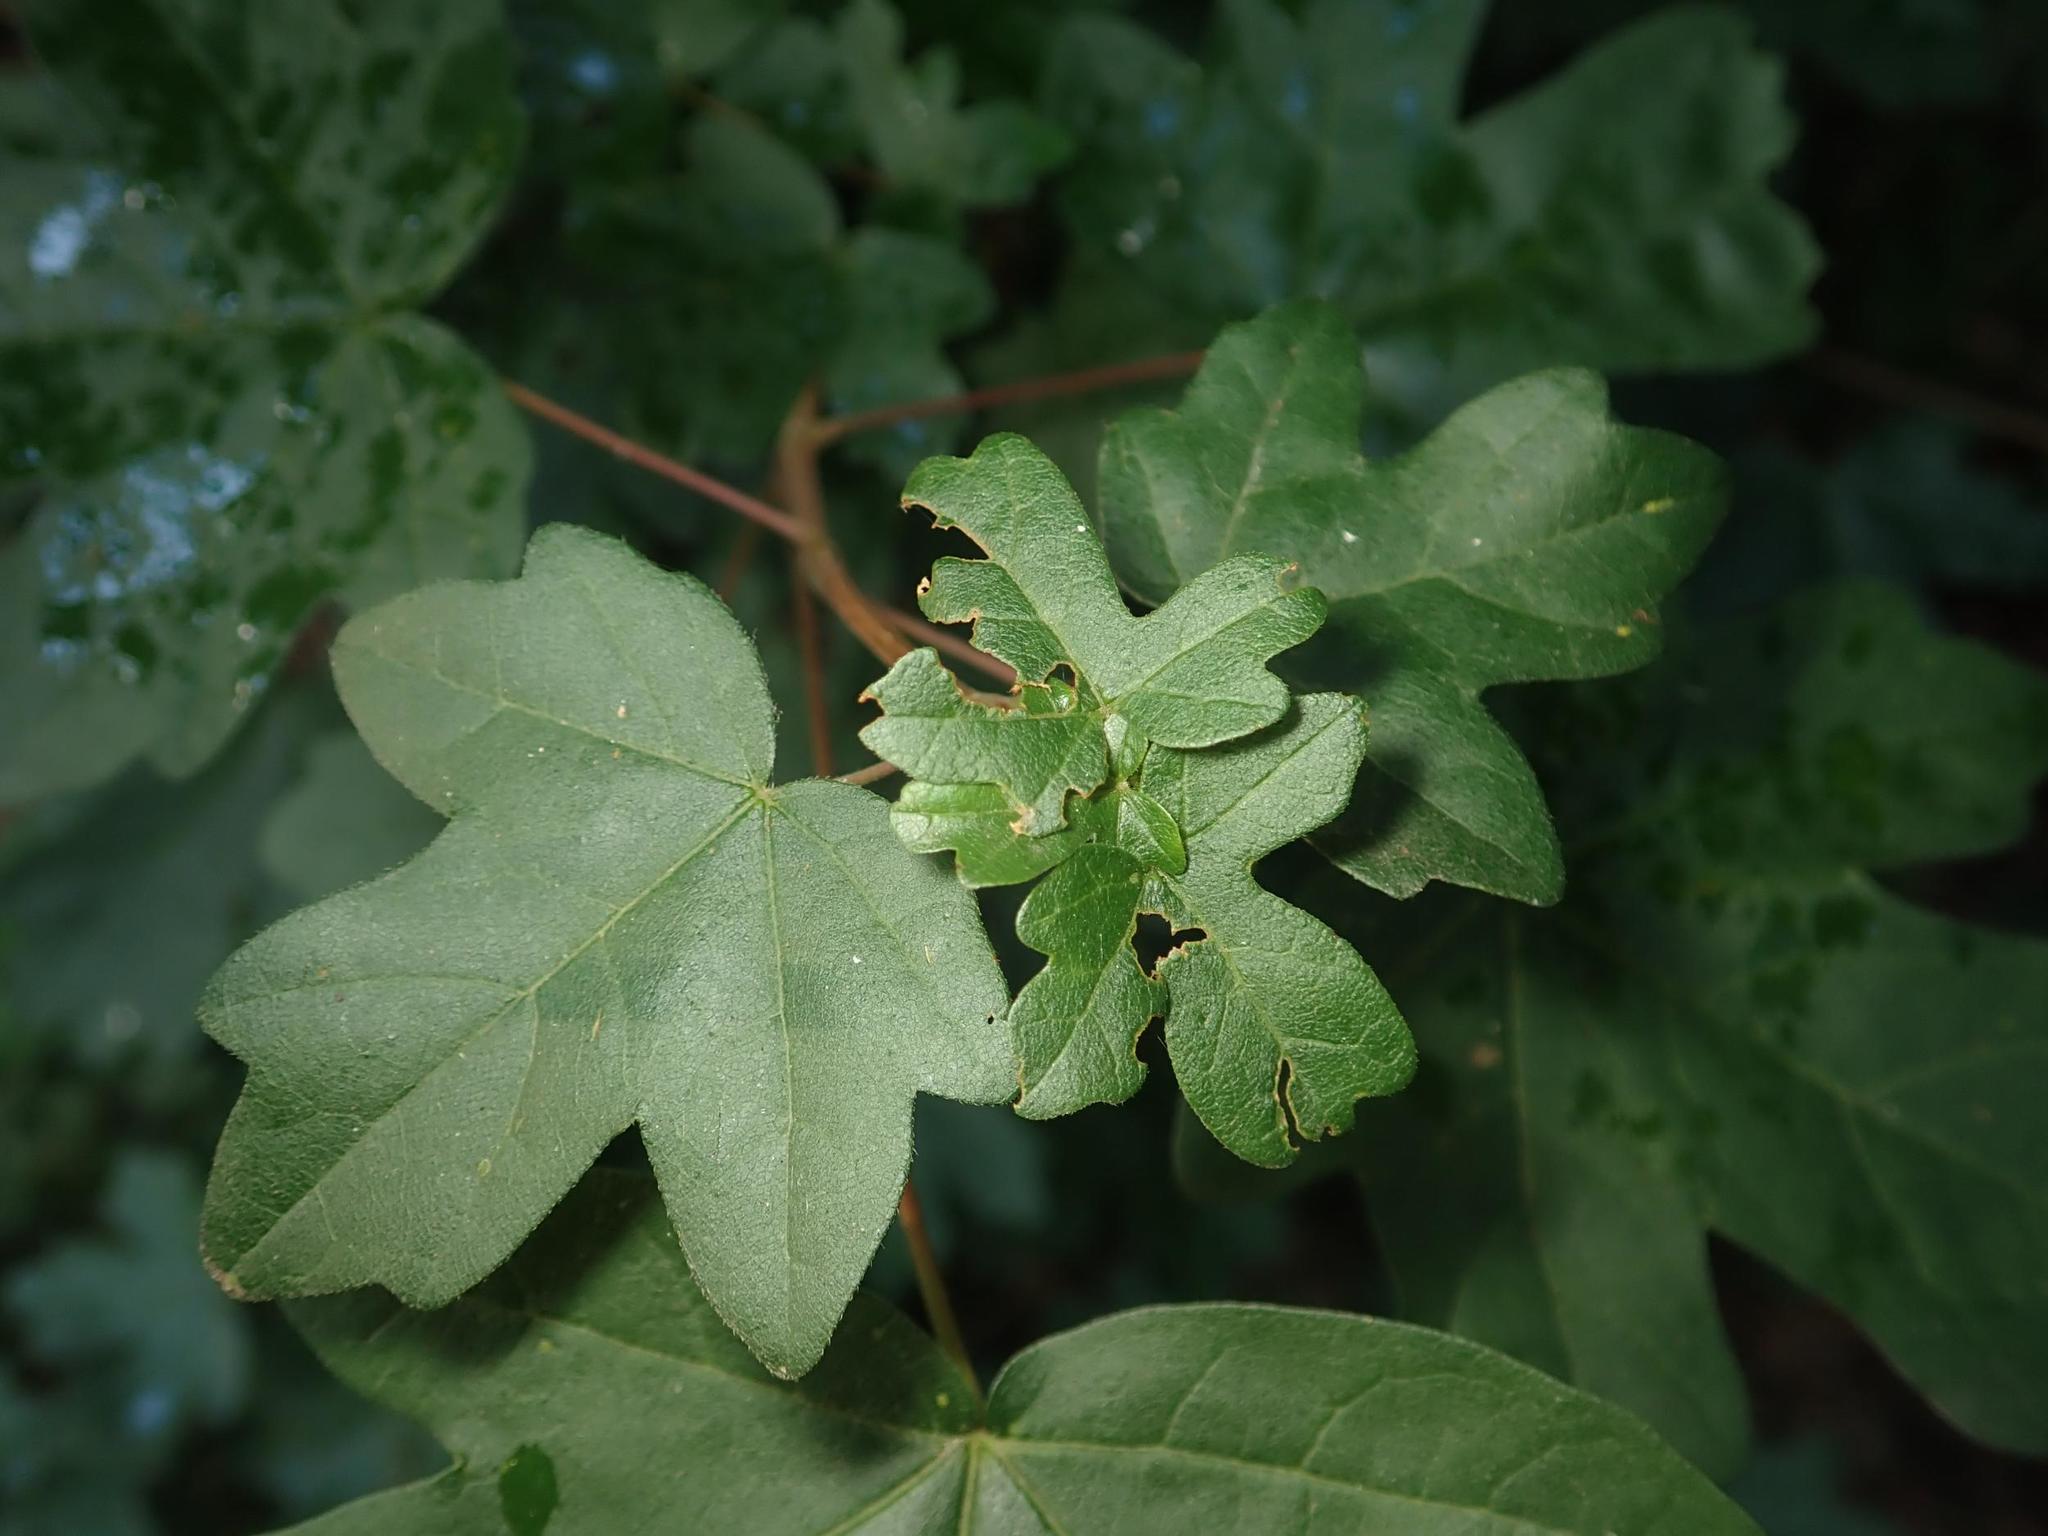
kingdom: Plantae
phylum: Tracheophyta
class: Magnoliopsida
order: Sapindales
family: Sapindaceae
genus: Acer
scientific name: Acer campestre
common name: Field maple
